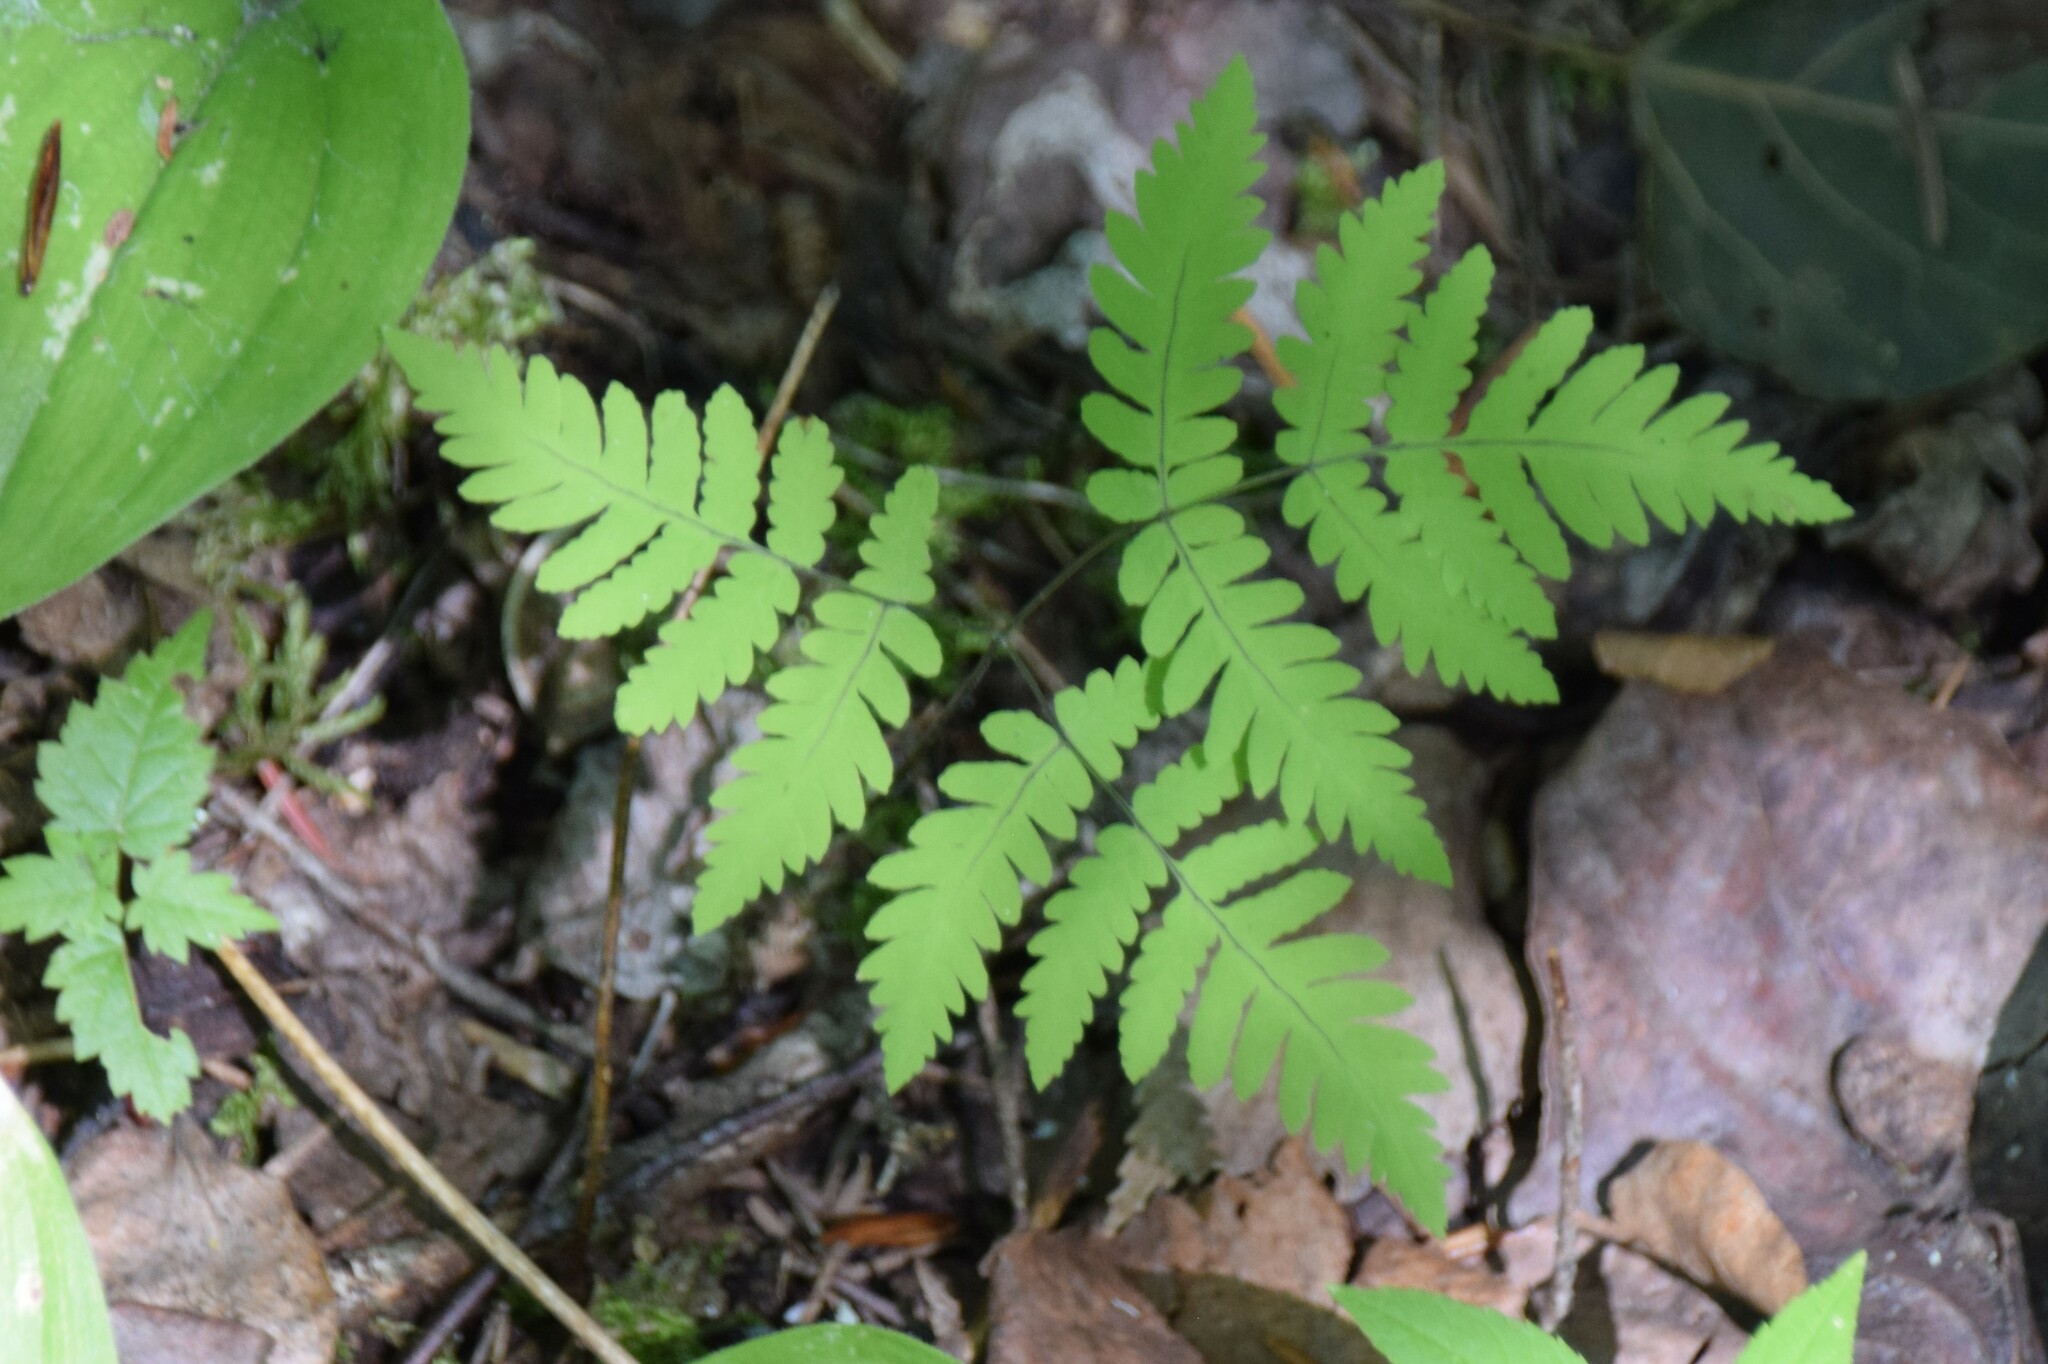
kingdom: Plantae
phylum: Tracheophyta
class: Polypodiopsida
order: Polypodiales
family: Cystopteridaceae
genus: Gymnocarpium
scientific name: Gymnocarpium dryopteris
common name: Oak fern
